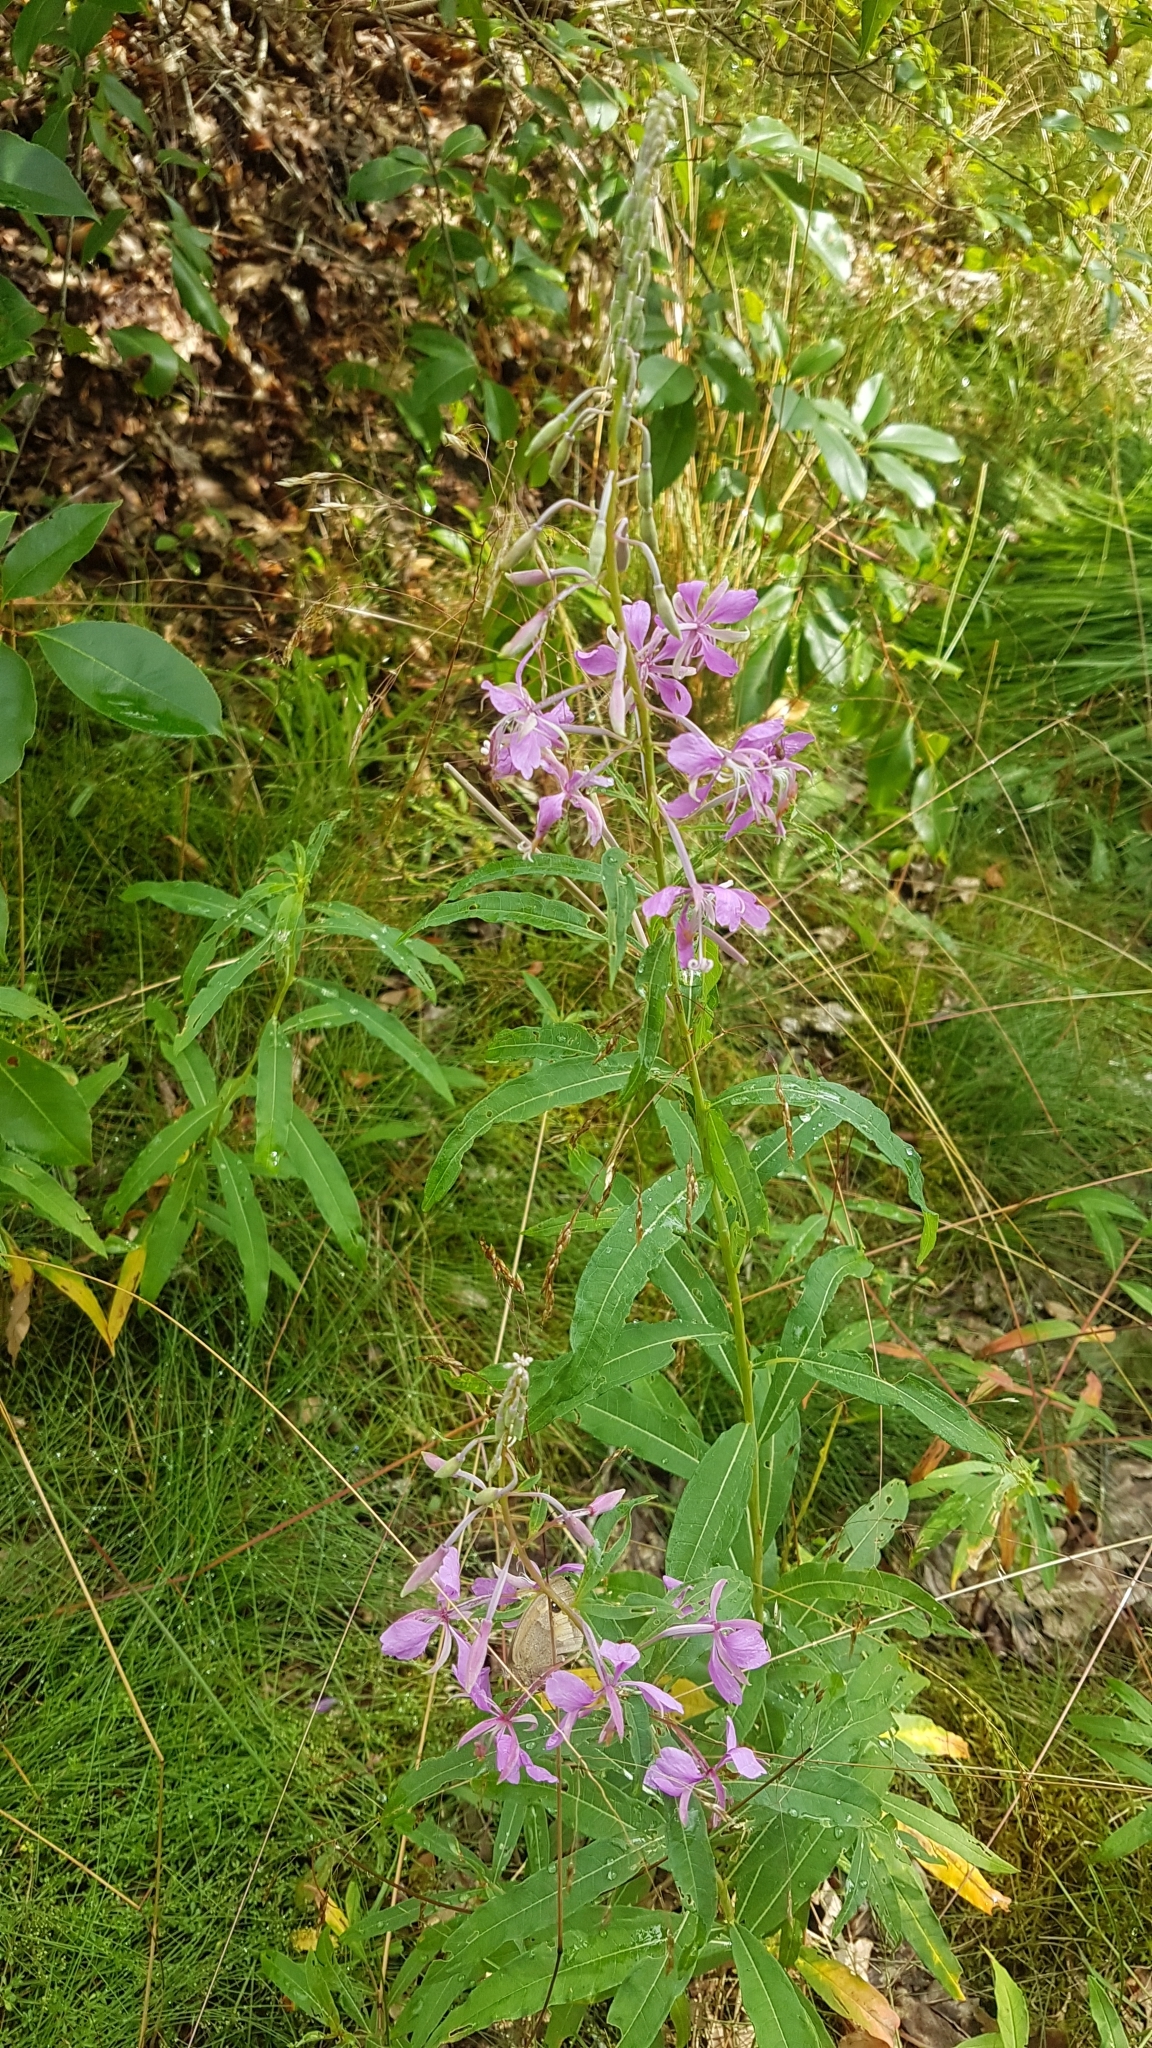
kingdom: Plantae
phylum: Tracheophyta
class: Magnoliopsida
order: Myrtales
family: Onagraceae
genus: Chamaenerion
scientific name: Chamaenerion angustifolium
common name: Fireweed
